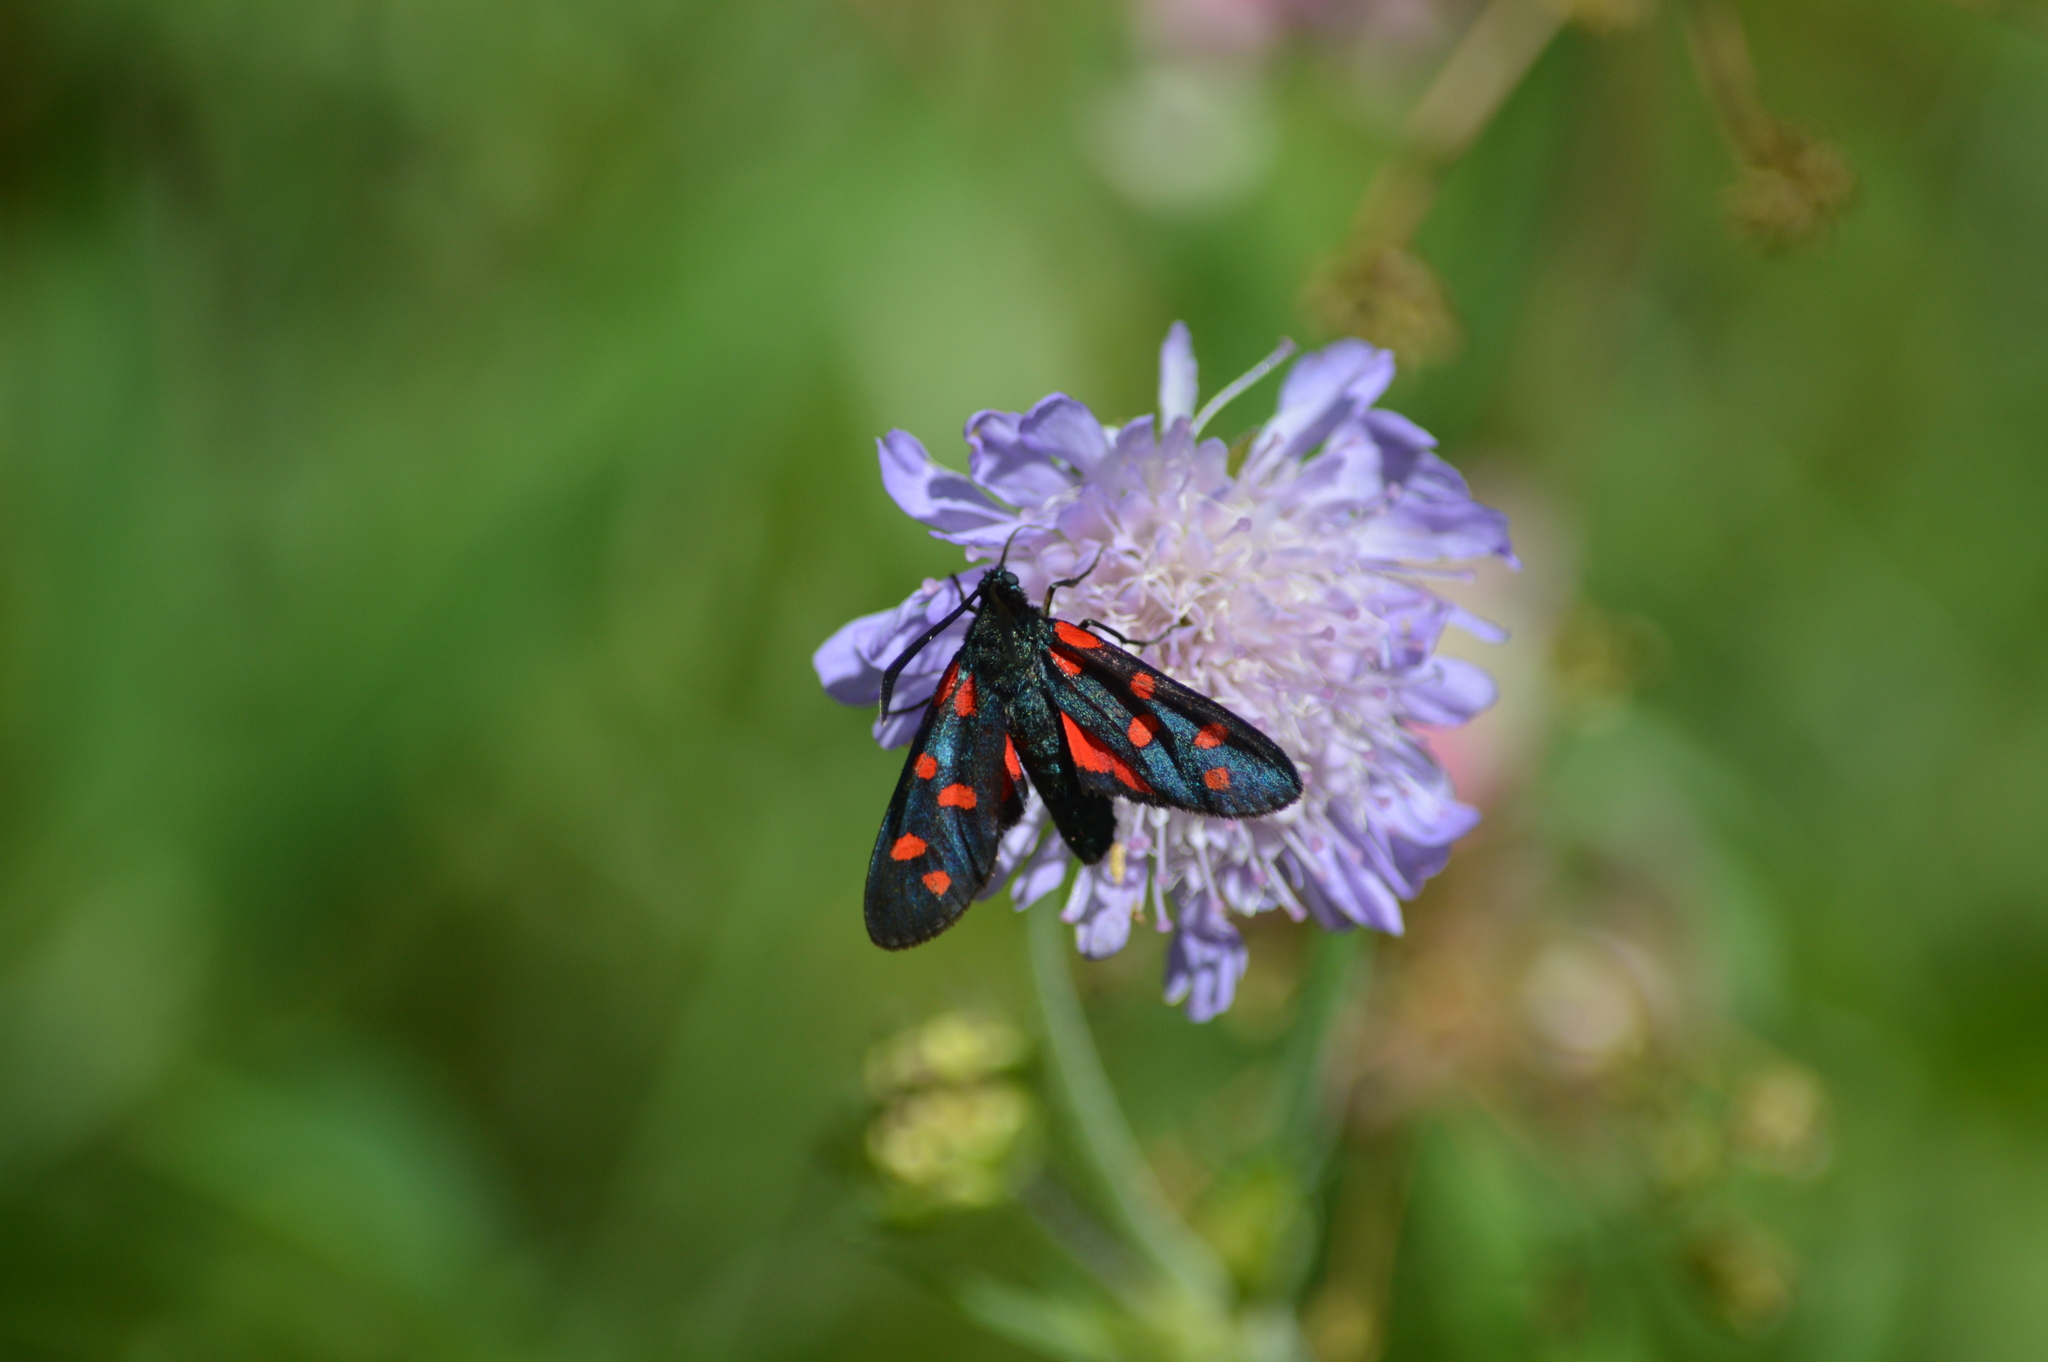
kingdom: Animalia
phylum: Arthropoda
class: Insecta
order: Lepidoptera
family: Zygaenidae
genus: Zygaena
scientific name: Zygaena transalpina
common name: Southern six spot burnet
